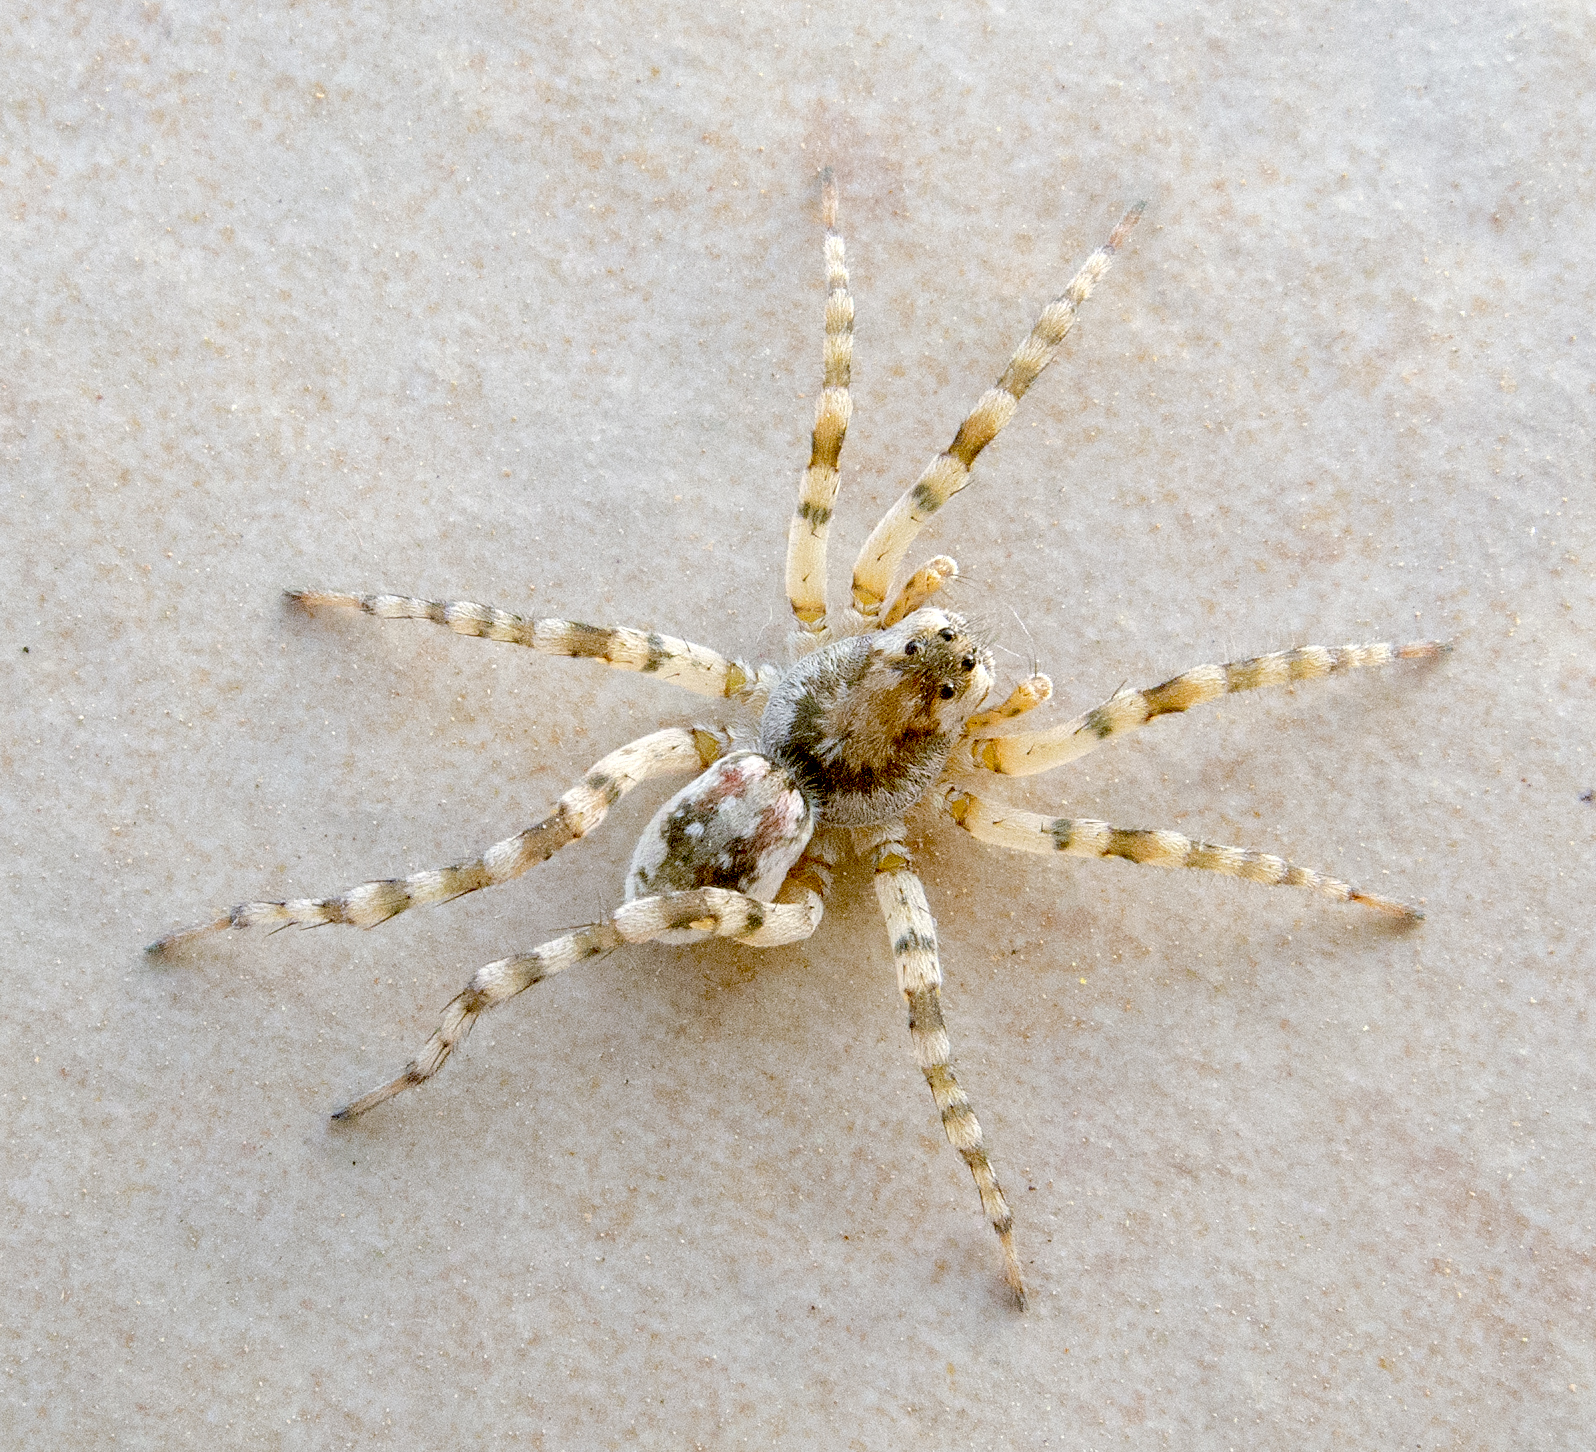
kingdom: Animalia
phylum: Arthropoda
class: Arachnida
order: Araneae
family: Lycosidae
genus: Arctosa
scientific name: Arctosa cinerea
